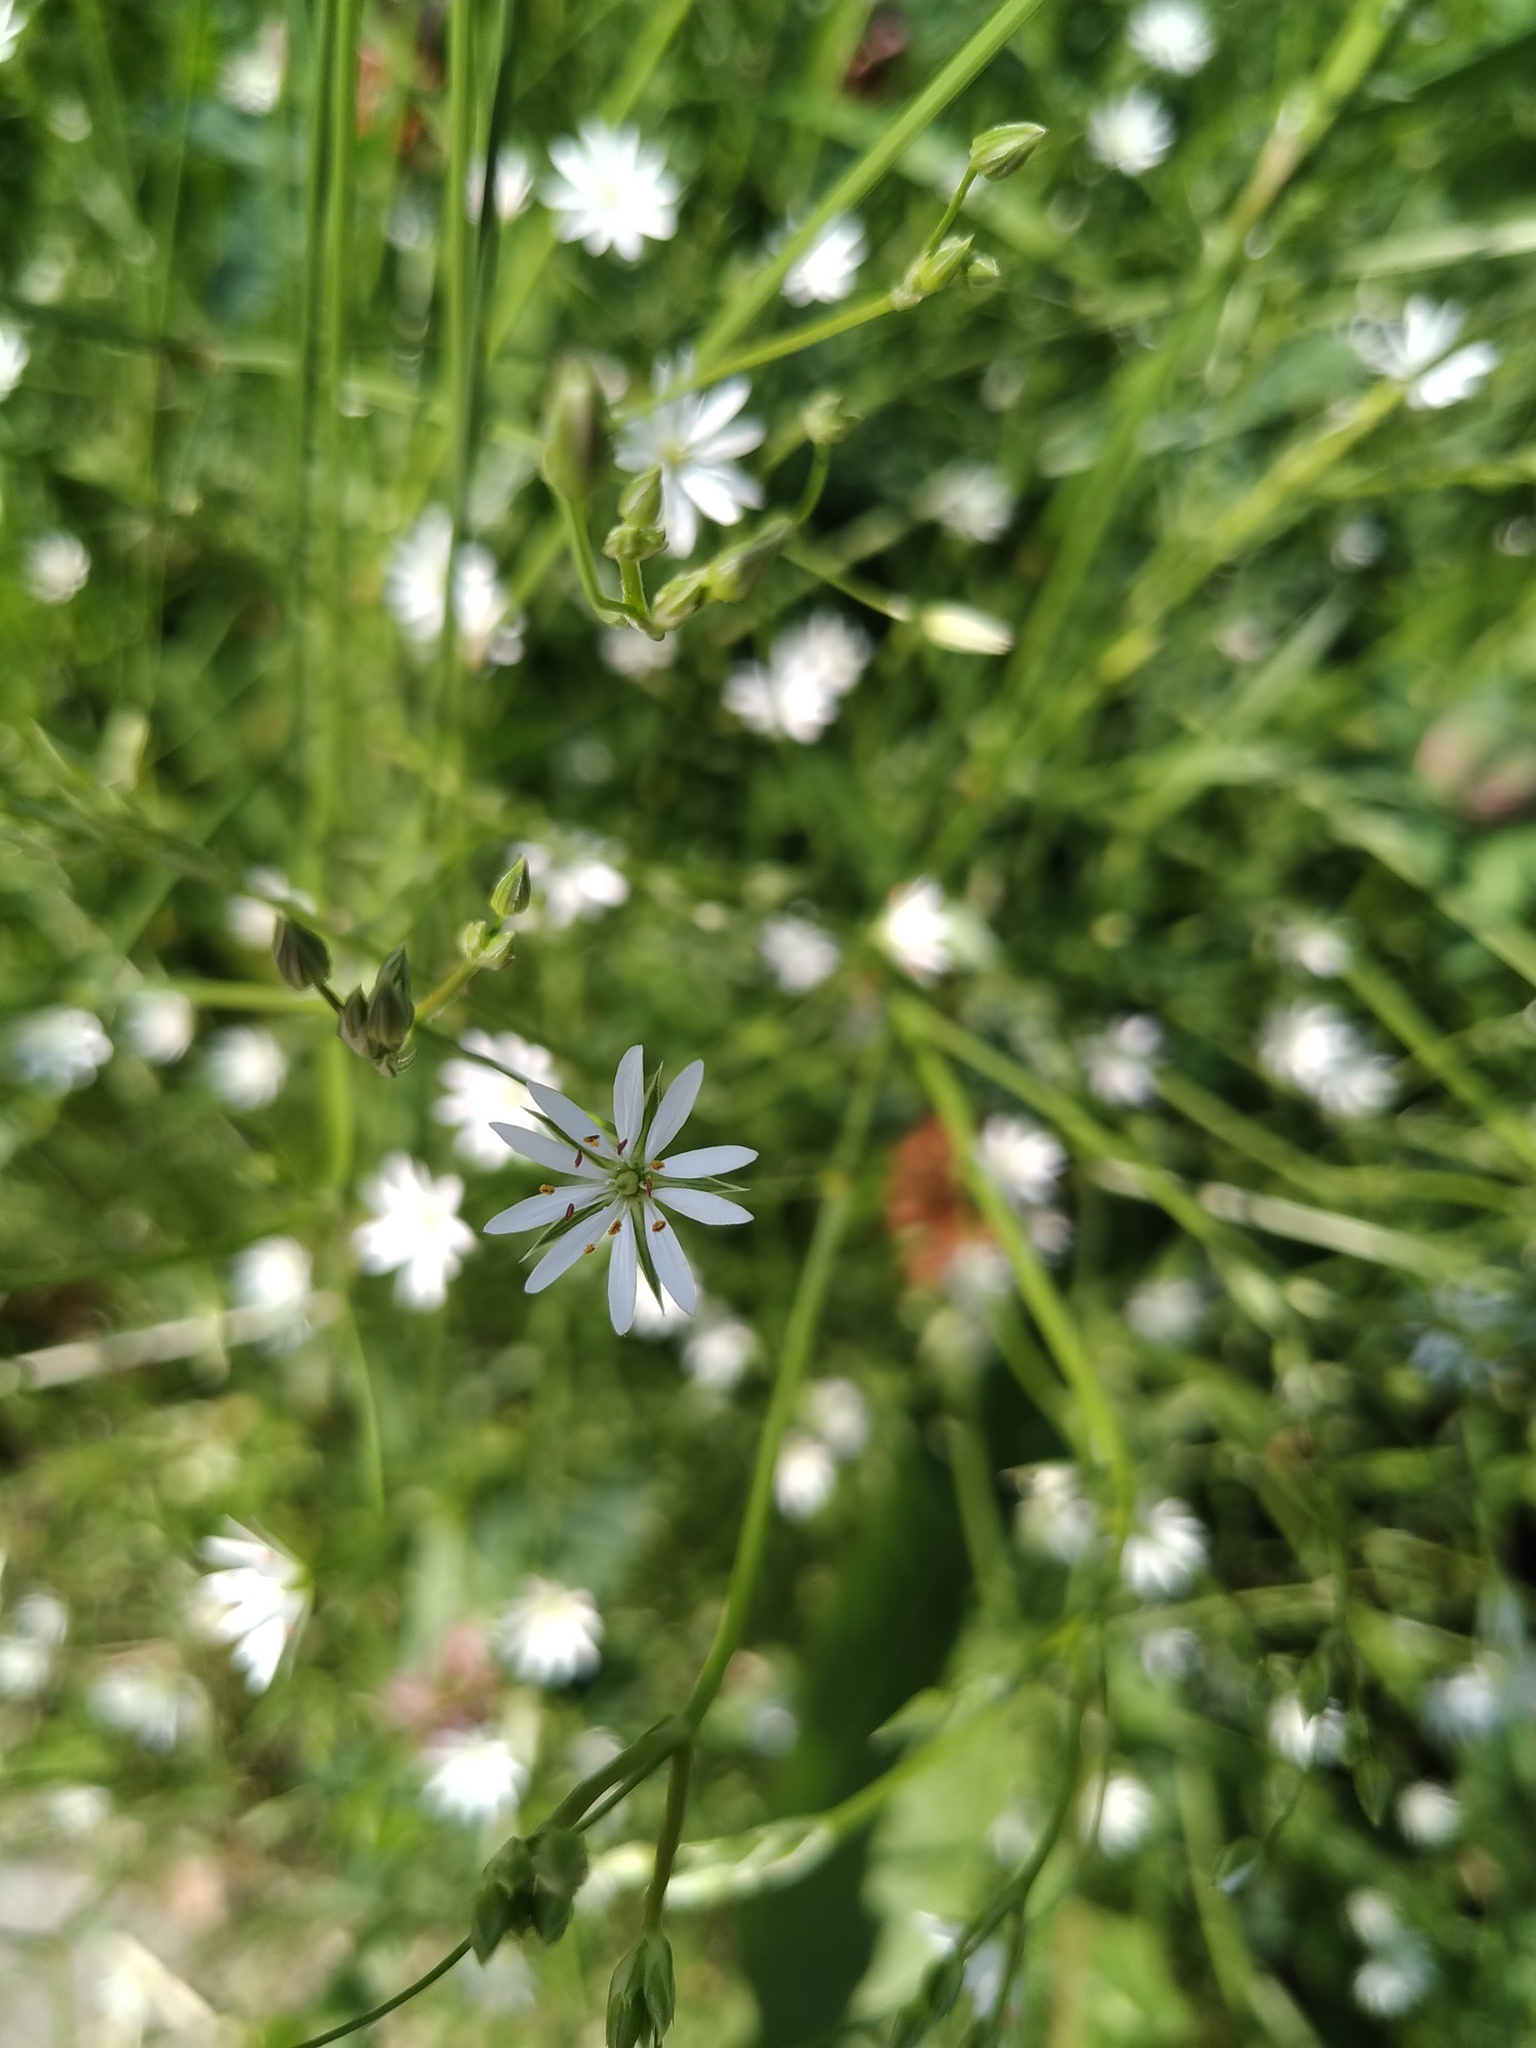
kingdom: Plantae
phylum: Tracheophyta
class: Magnoliopsida
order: Caryophyllales
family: Caryophyllaceae
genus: Stellaria
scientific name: Stellaria graminea
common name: Grass-like starwort
